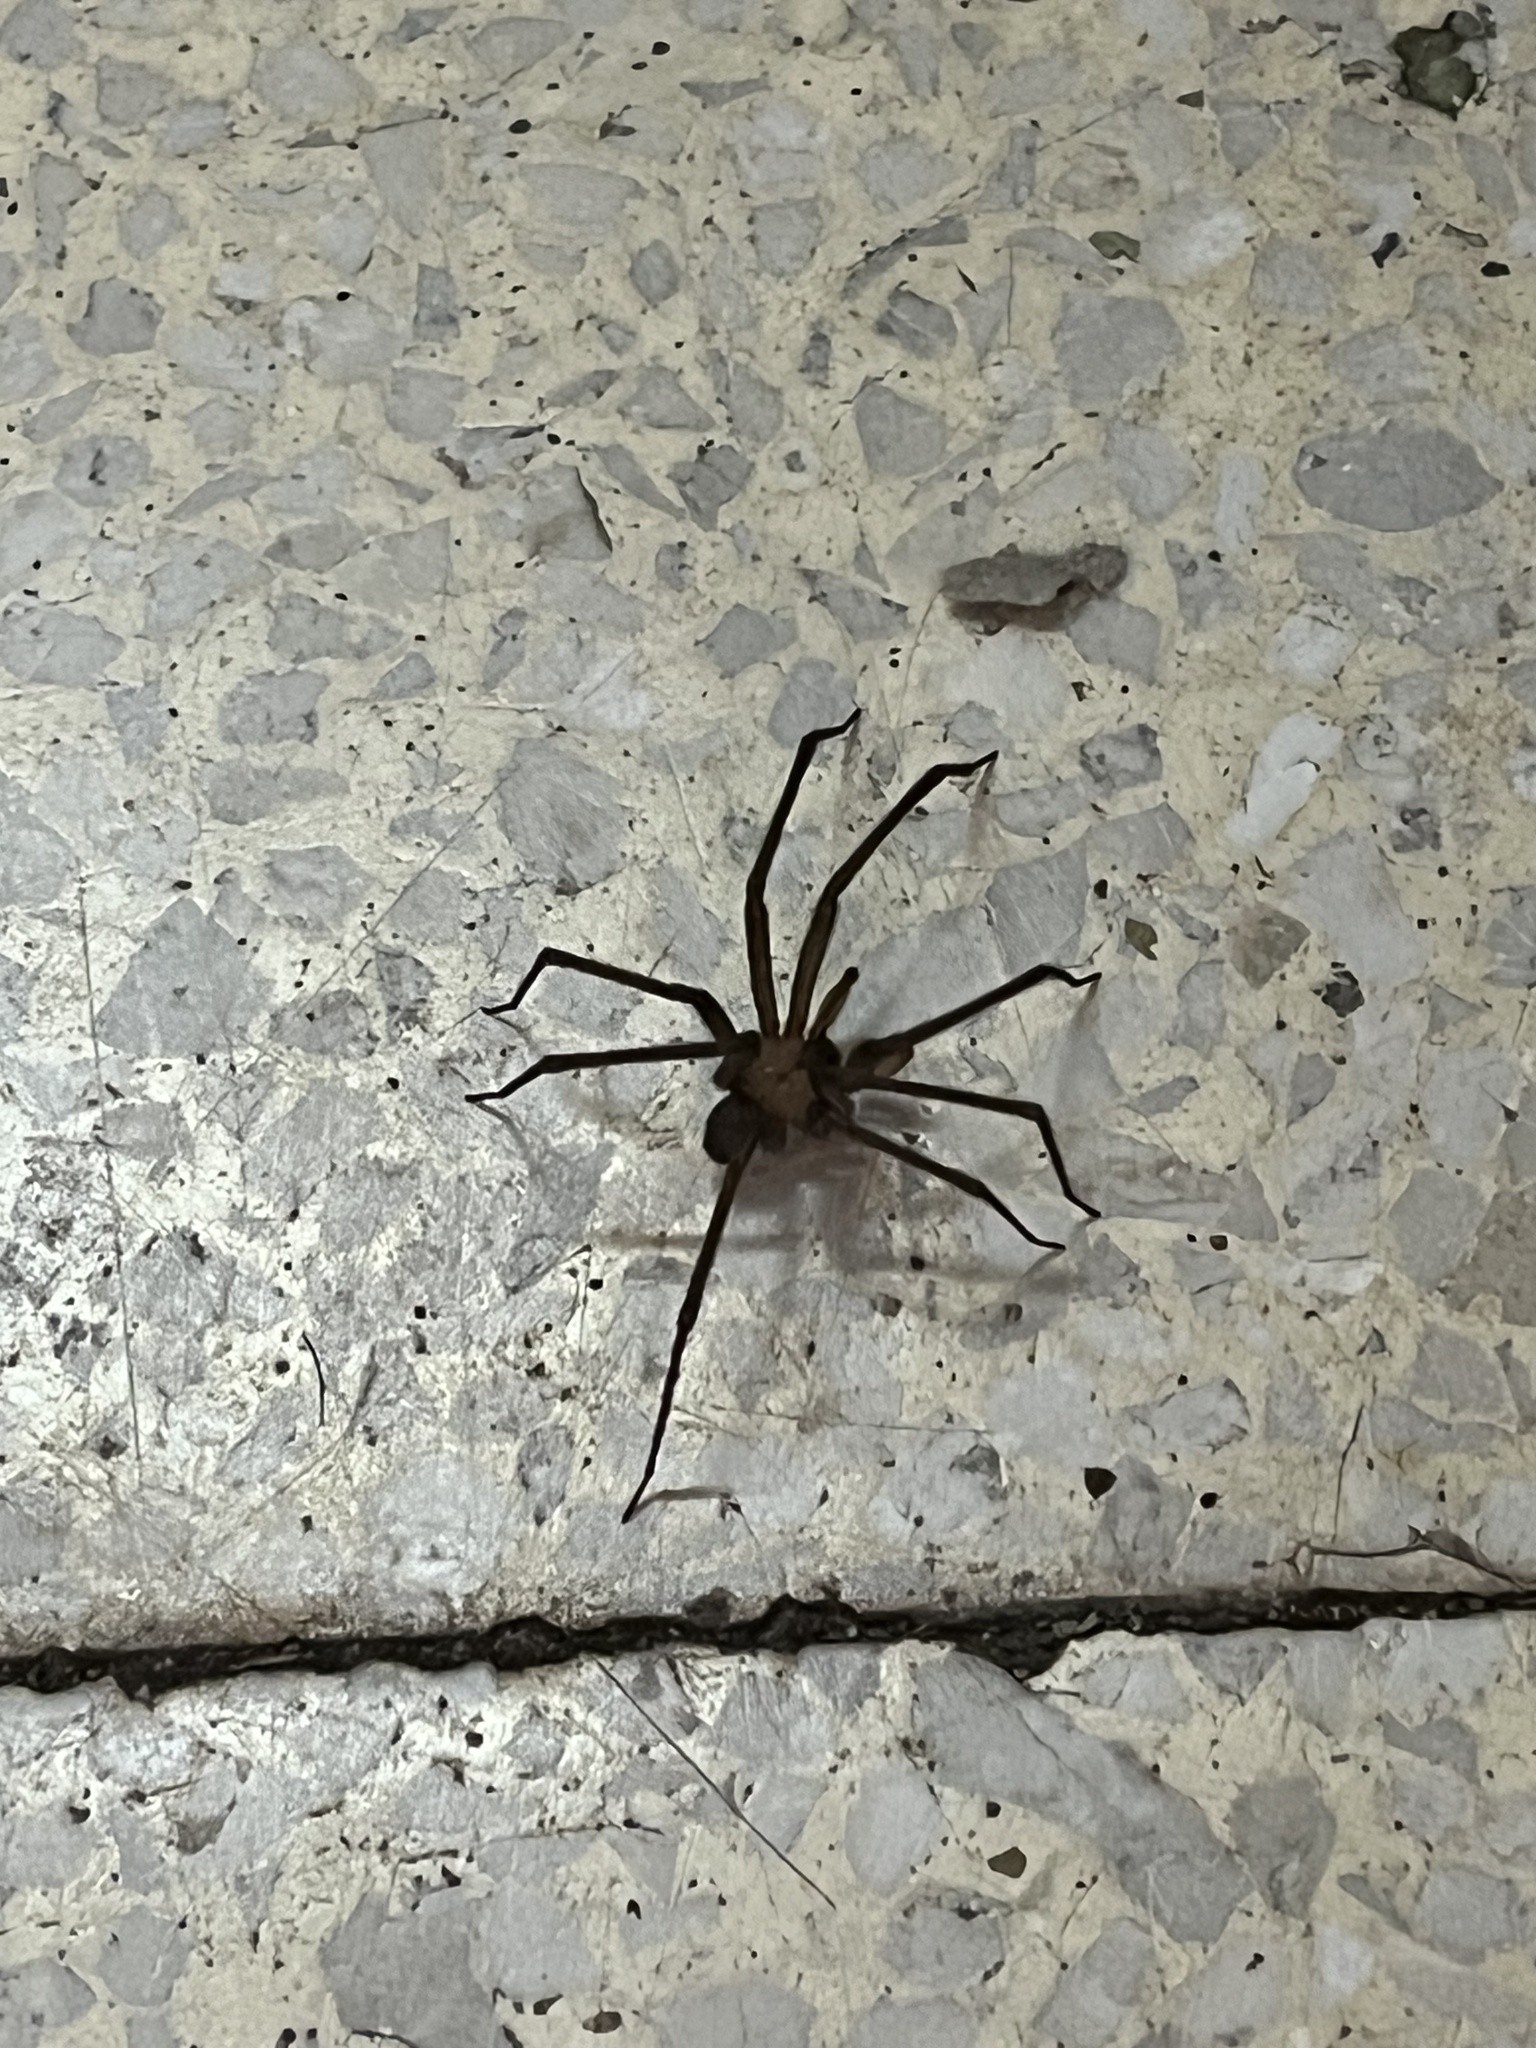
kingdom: Animalia
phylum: Arthropoda
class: Arachnida
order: Araneae
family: Sicariidae
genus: Loxosceles
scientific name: Loxosceles laeta
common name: Chilean recluse spider
